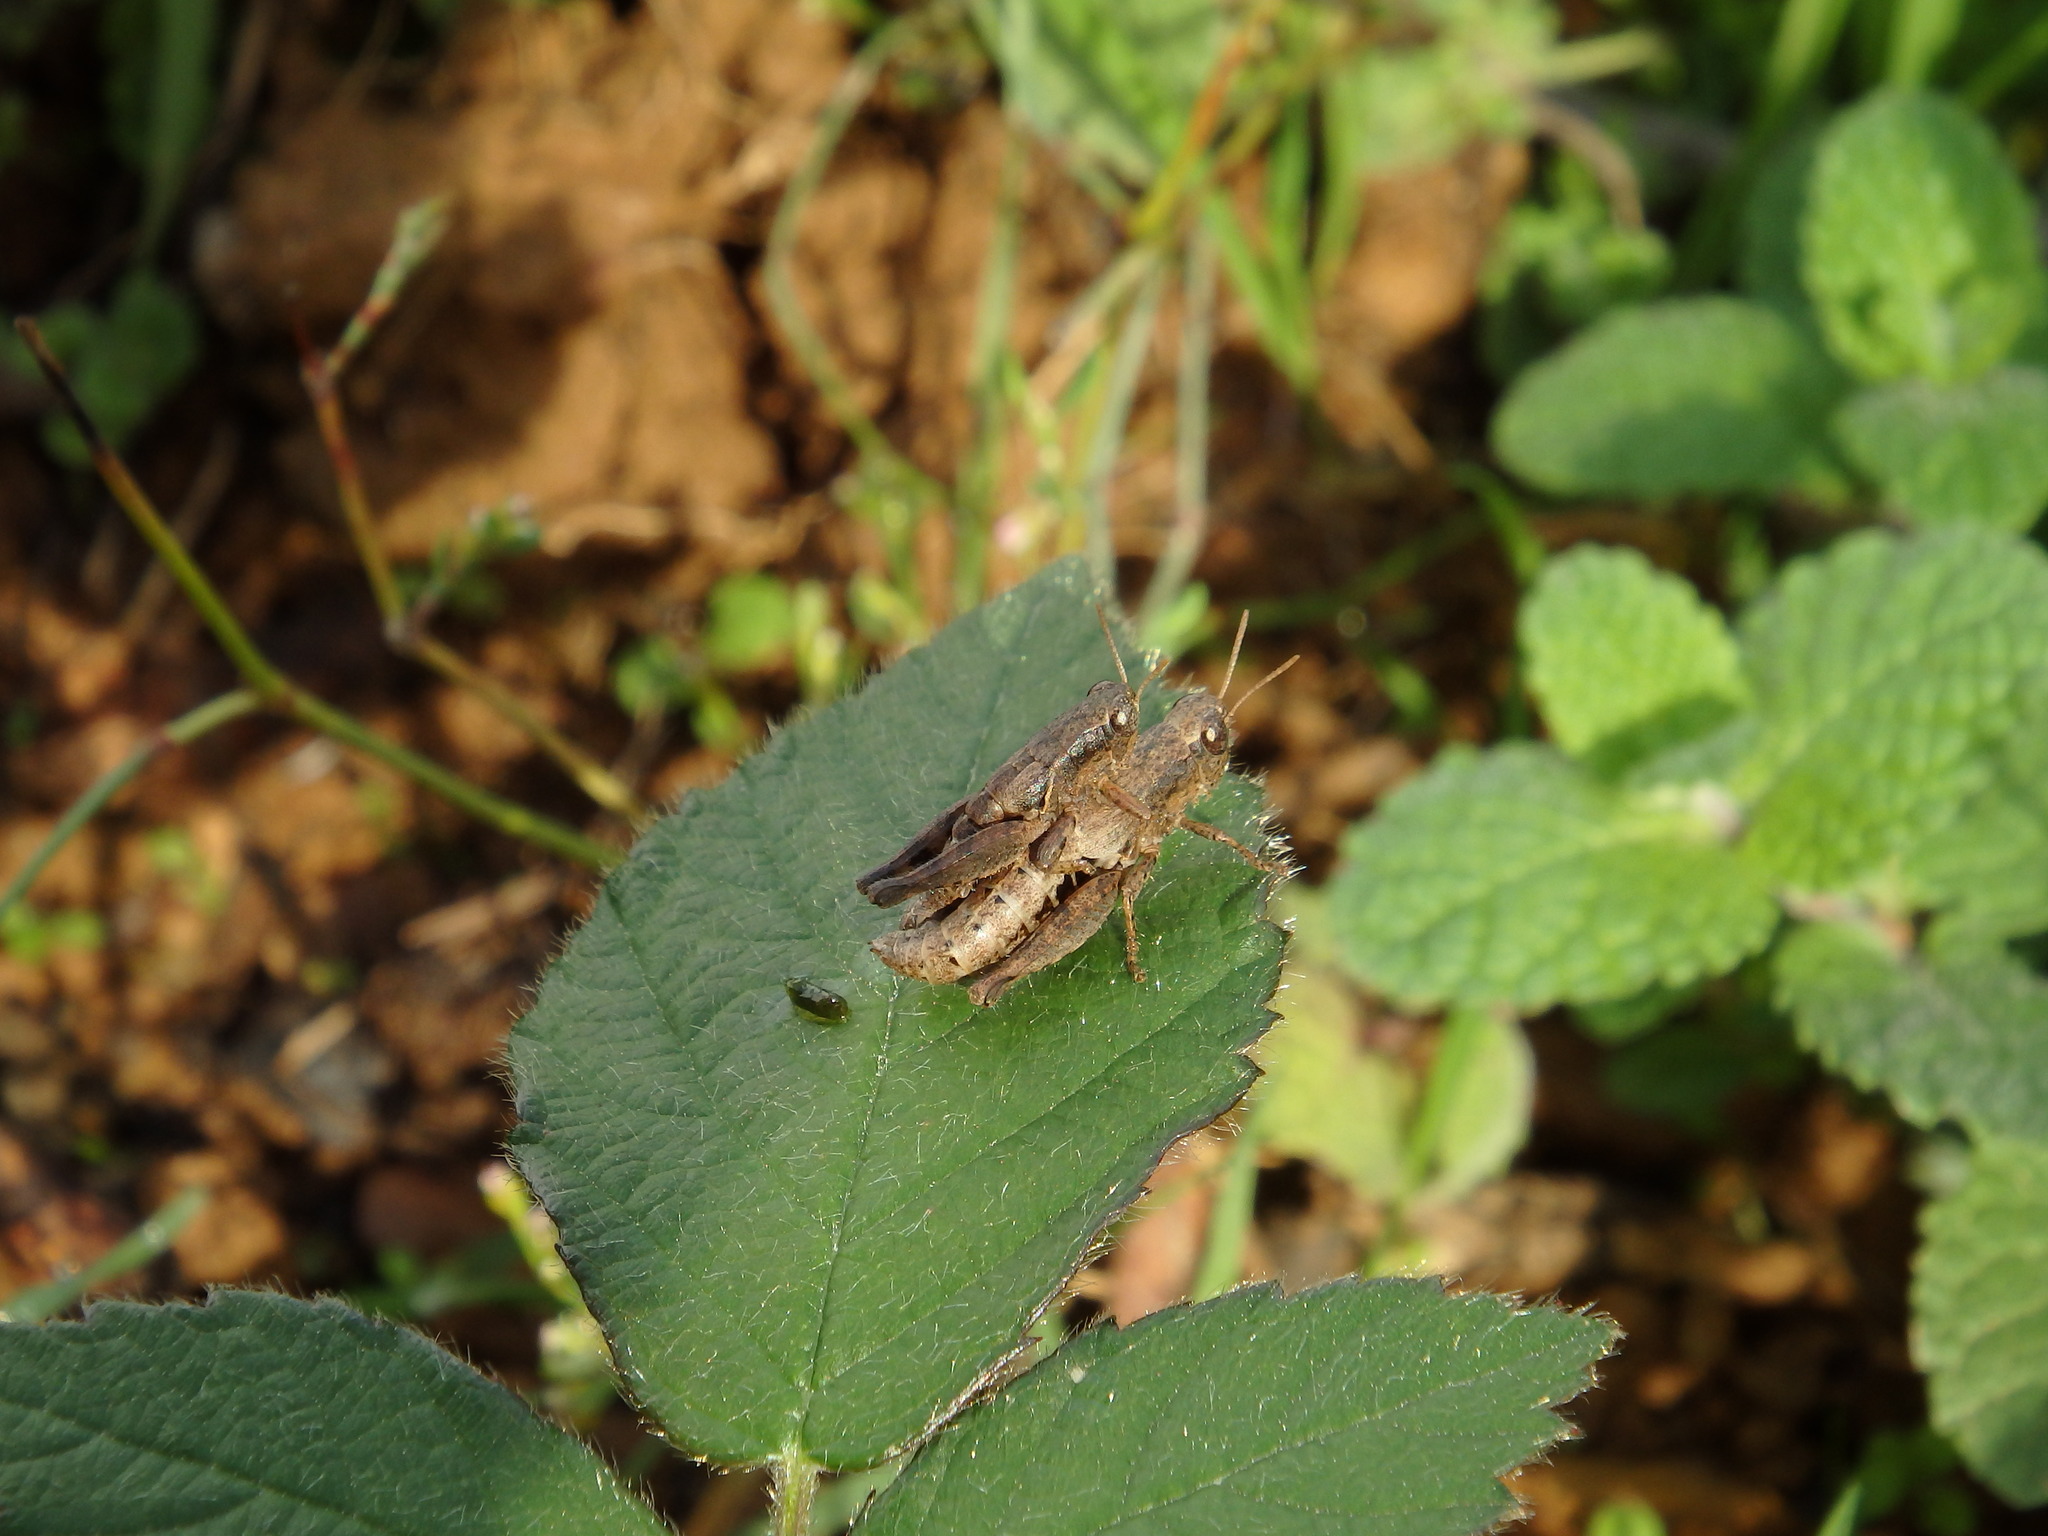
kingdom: Animalia
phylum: Arthropoda
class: Insecta
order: Orthoptera
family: Acrididae
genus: Pezotettix
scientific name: Pezotettix giornae
